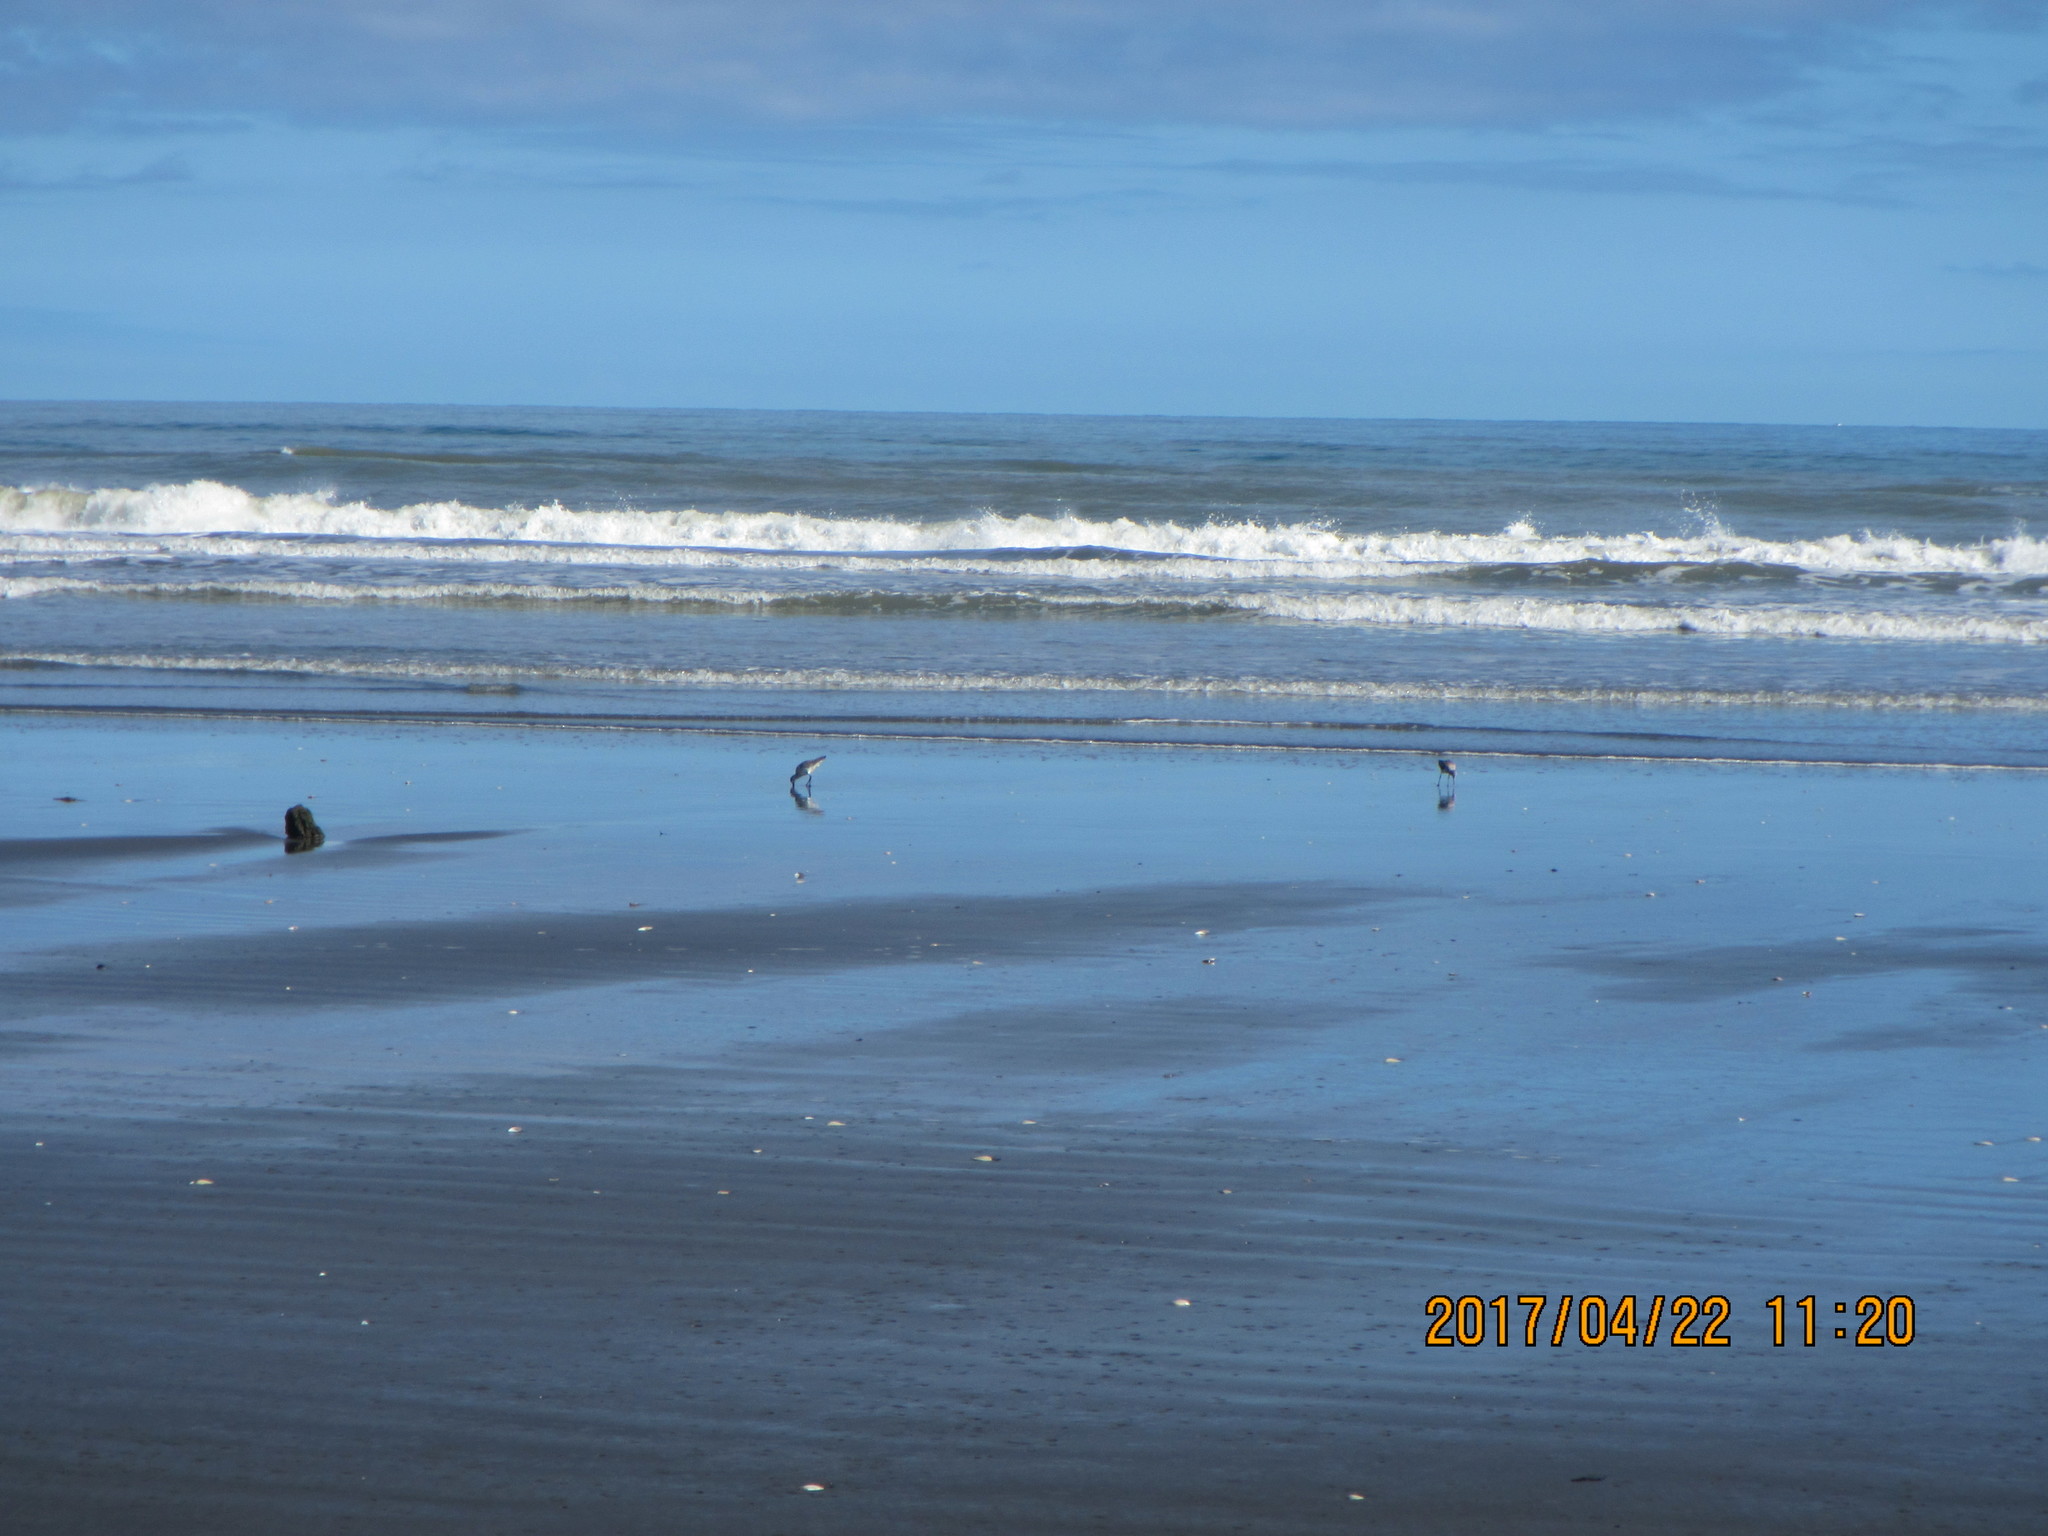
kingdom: Animalia
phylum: Chordata
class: Aves
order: Charadriiformes
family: Scolopacidae
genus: Limosa
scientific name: Limosa lapponica
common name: Bar-tailed godwit
